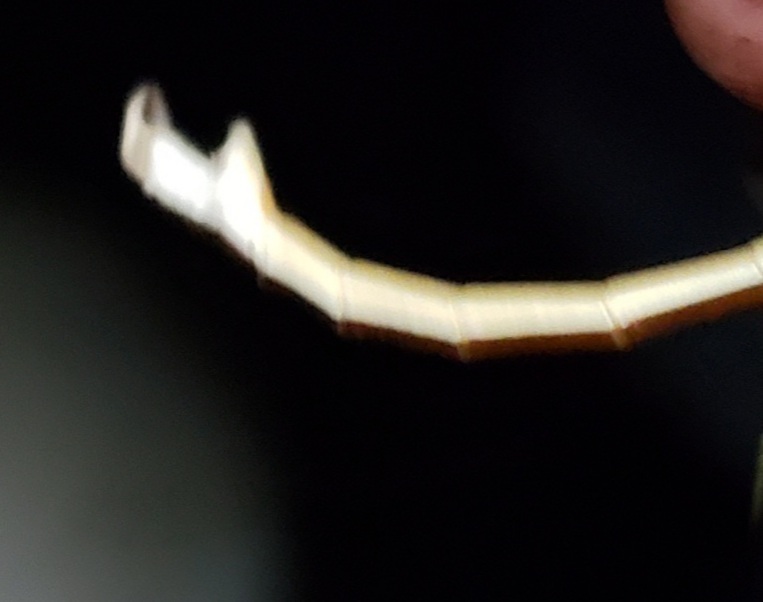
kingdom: Animalia
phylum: Arthropoda
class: Insecta
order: Phasmida
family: Diapheromeridae
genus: Manomera
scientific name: Manomera tenuescens
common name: Slender-bodied walkingstick
